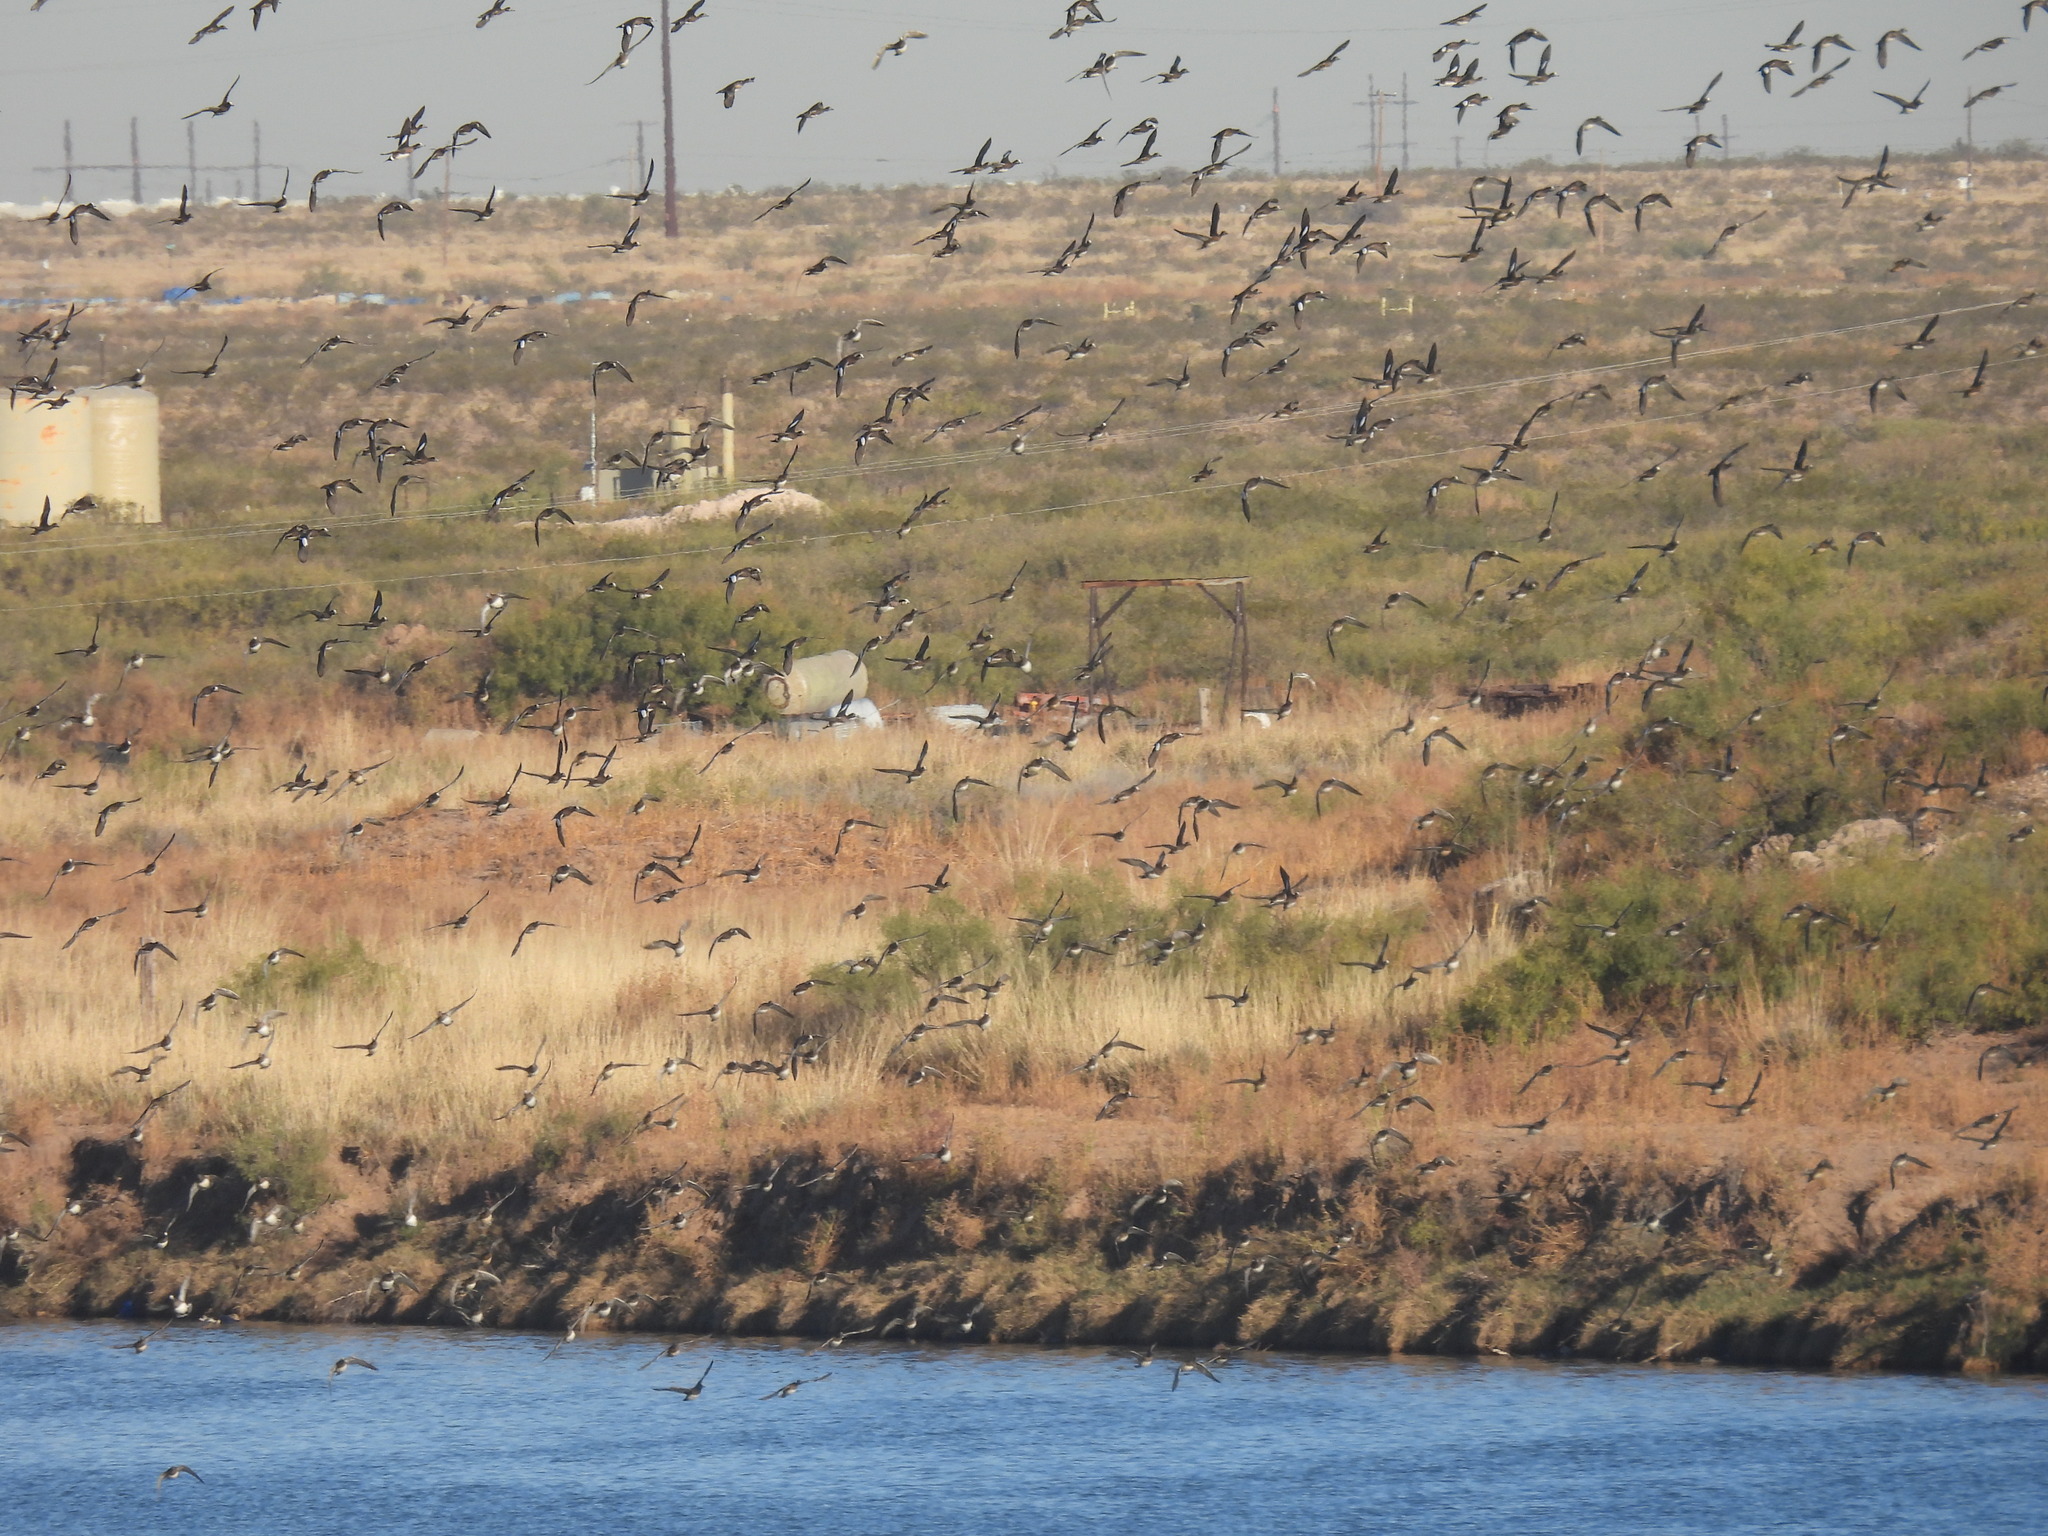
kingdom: Animalia
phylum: Chordata
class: Aves
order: Anseriformes
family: Anatidae
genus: Mareca
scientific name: Mareca americana
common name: American wigeon
